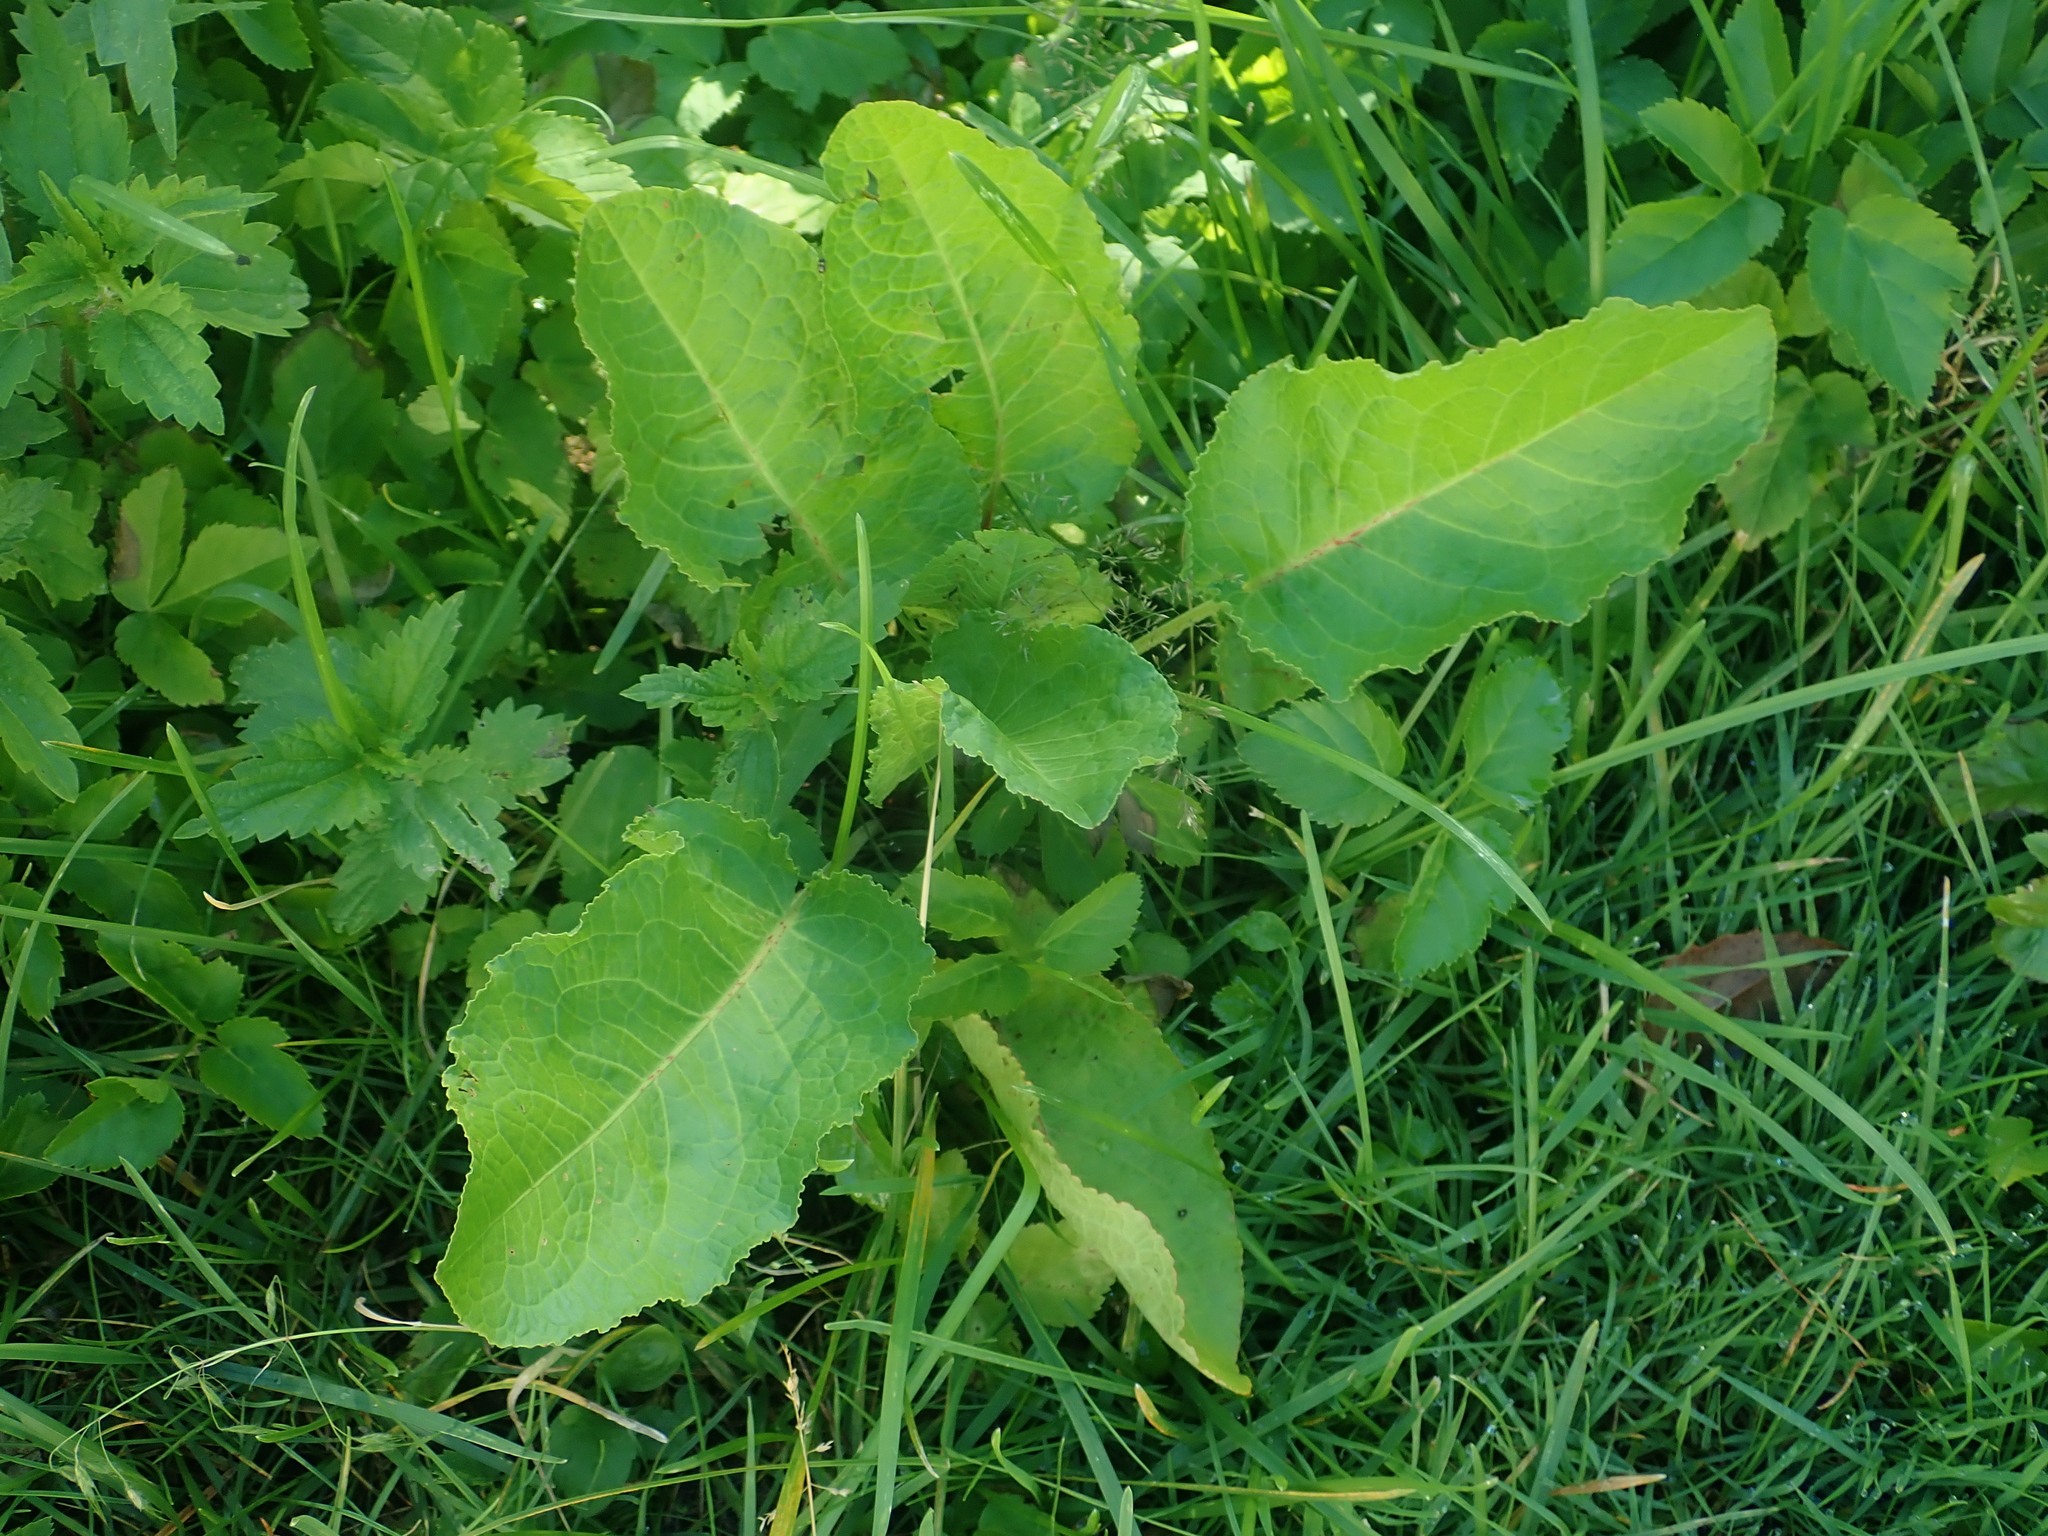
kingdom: Plantae
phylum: Tracheophyta
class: Magnoliopsida
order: Caryophyllales
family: Polygonaceae
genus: Rumex
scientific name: Rumex obtusifolius
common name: Bitter dock
